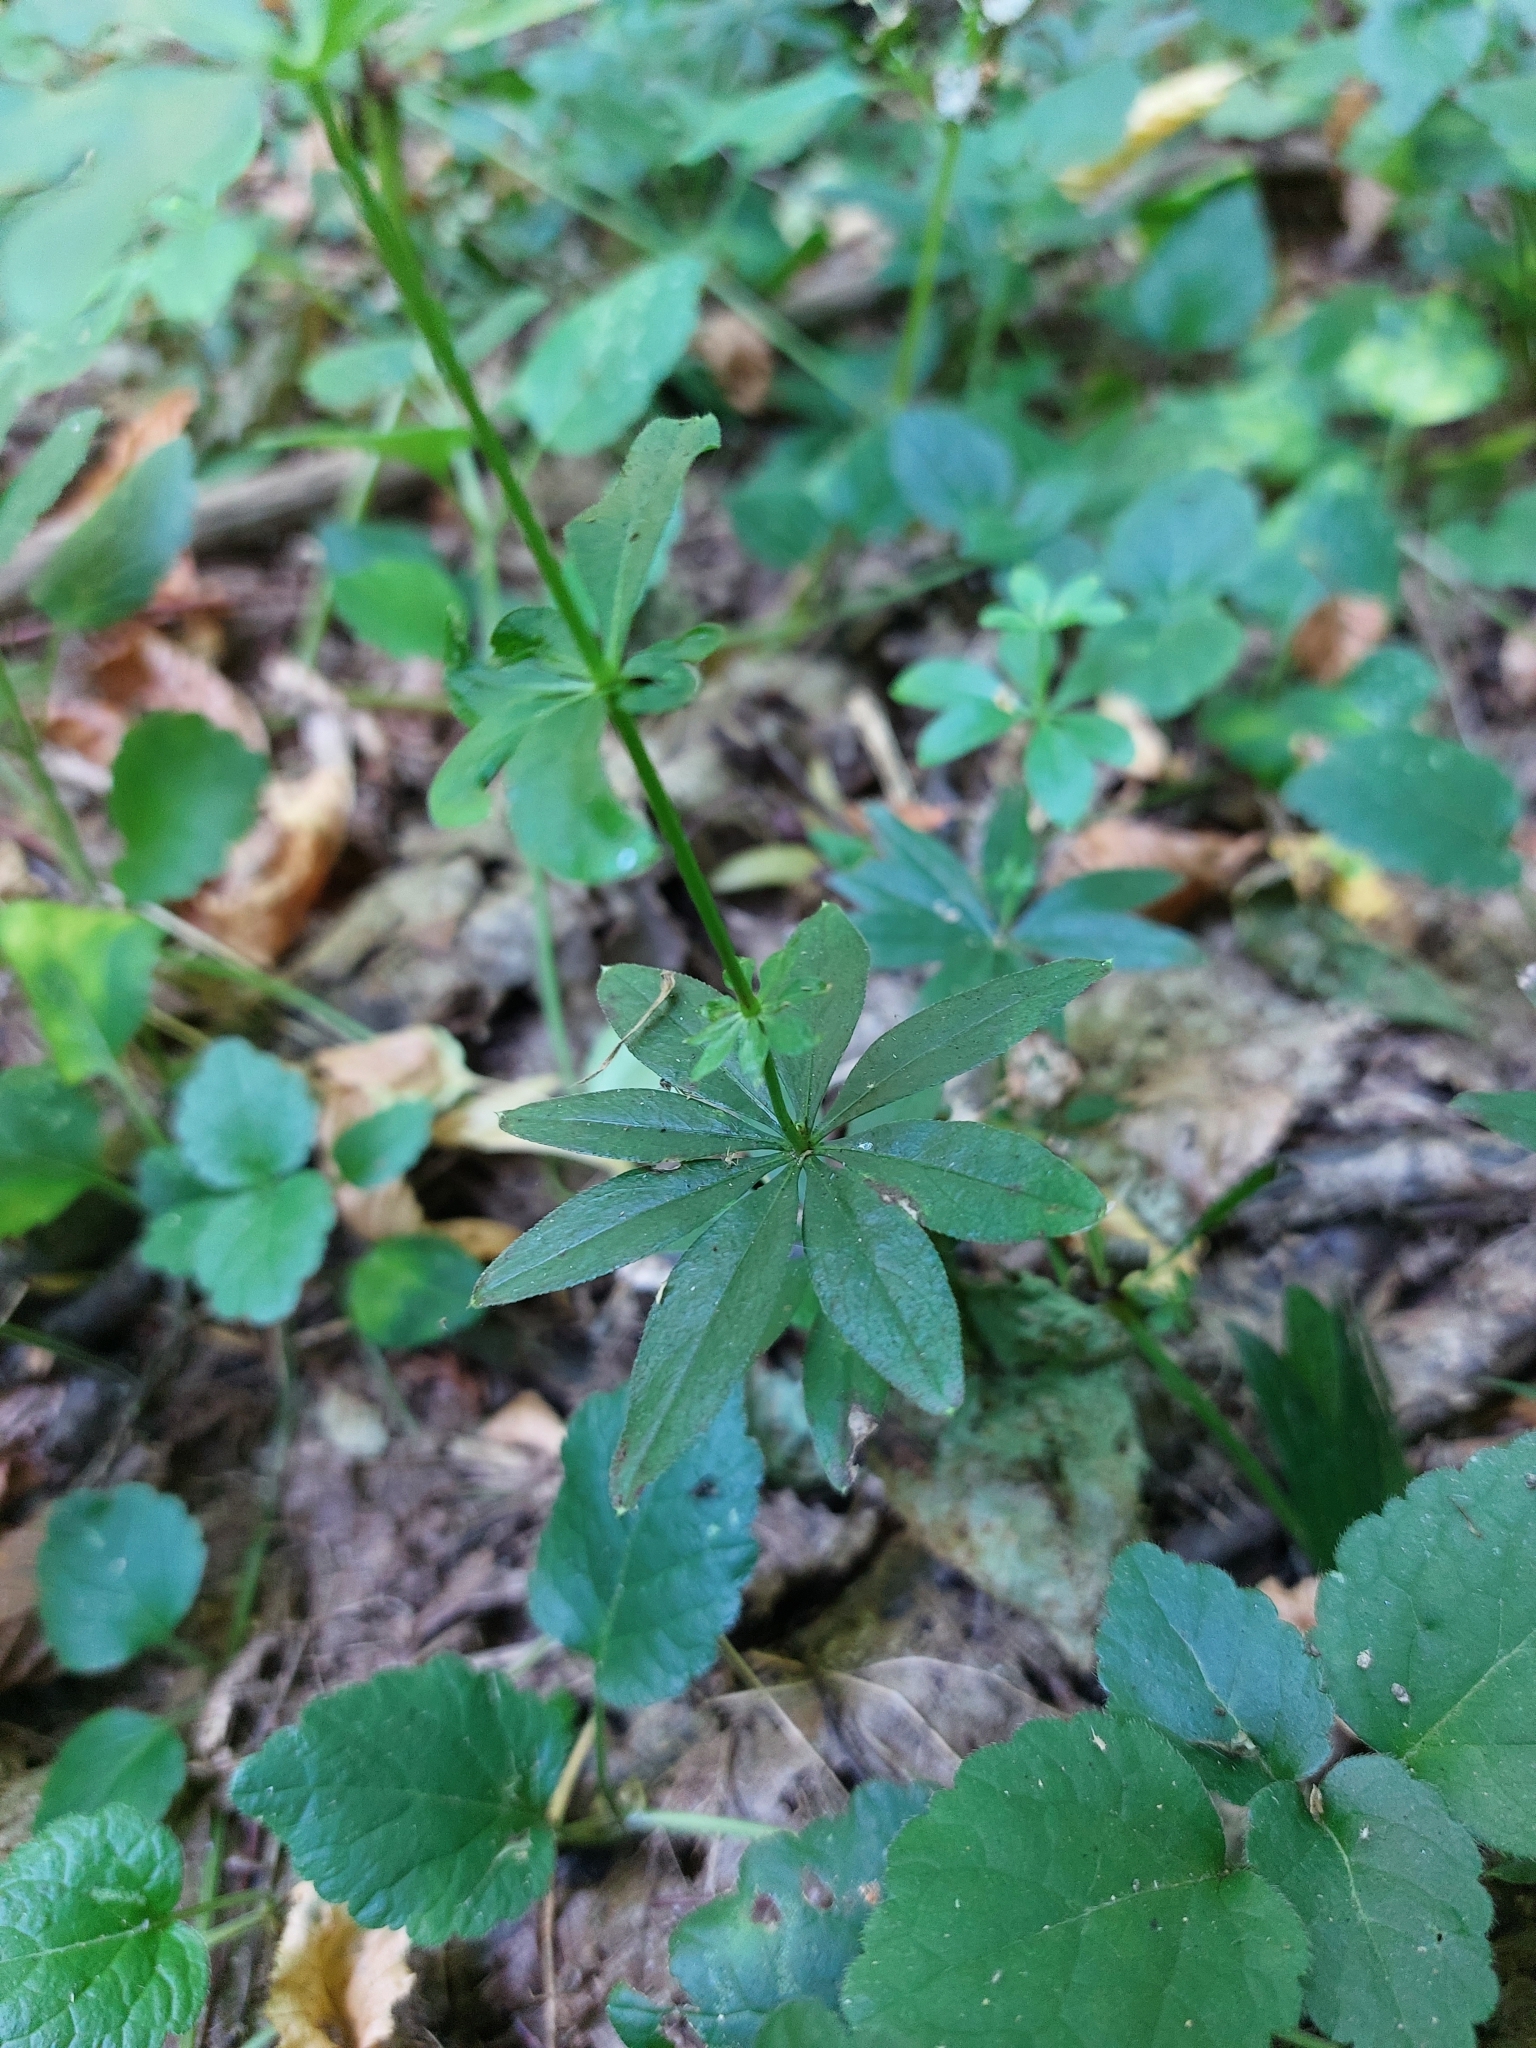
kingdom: Plantae
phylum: Tracheophyta
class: Magnoliopsida
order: Gentianales
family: Rubiaceae
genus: Galium
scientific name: Galium odoratum
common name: Sweet woodruff
